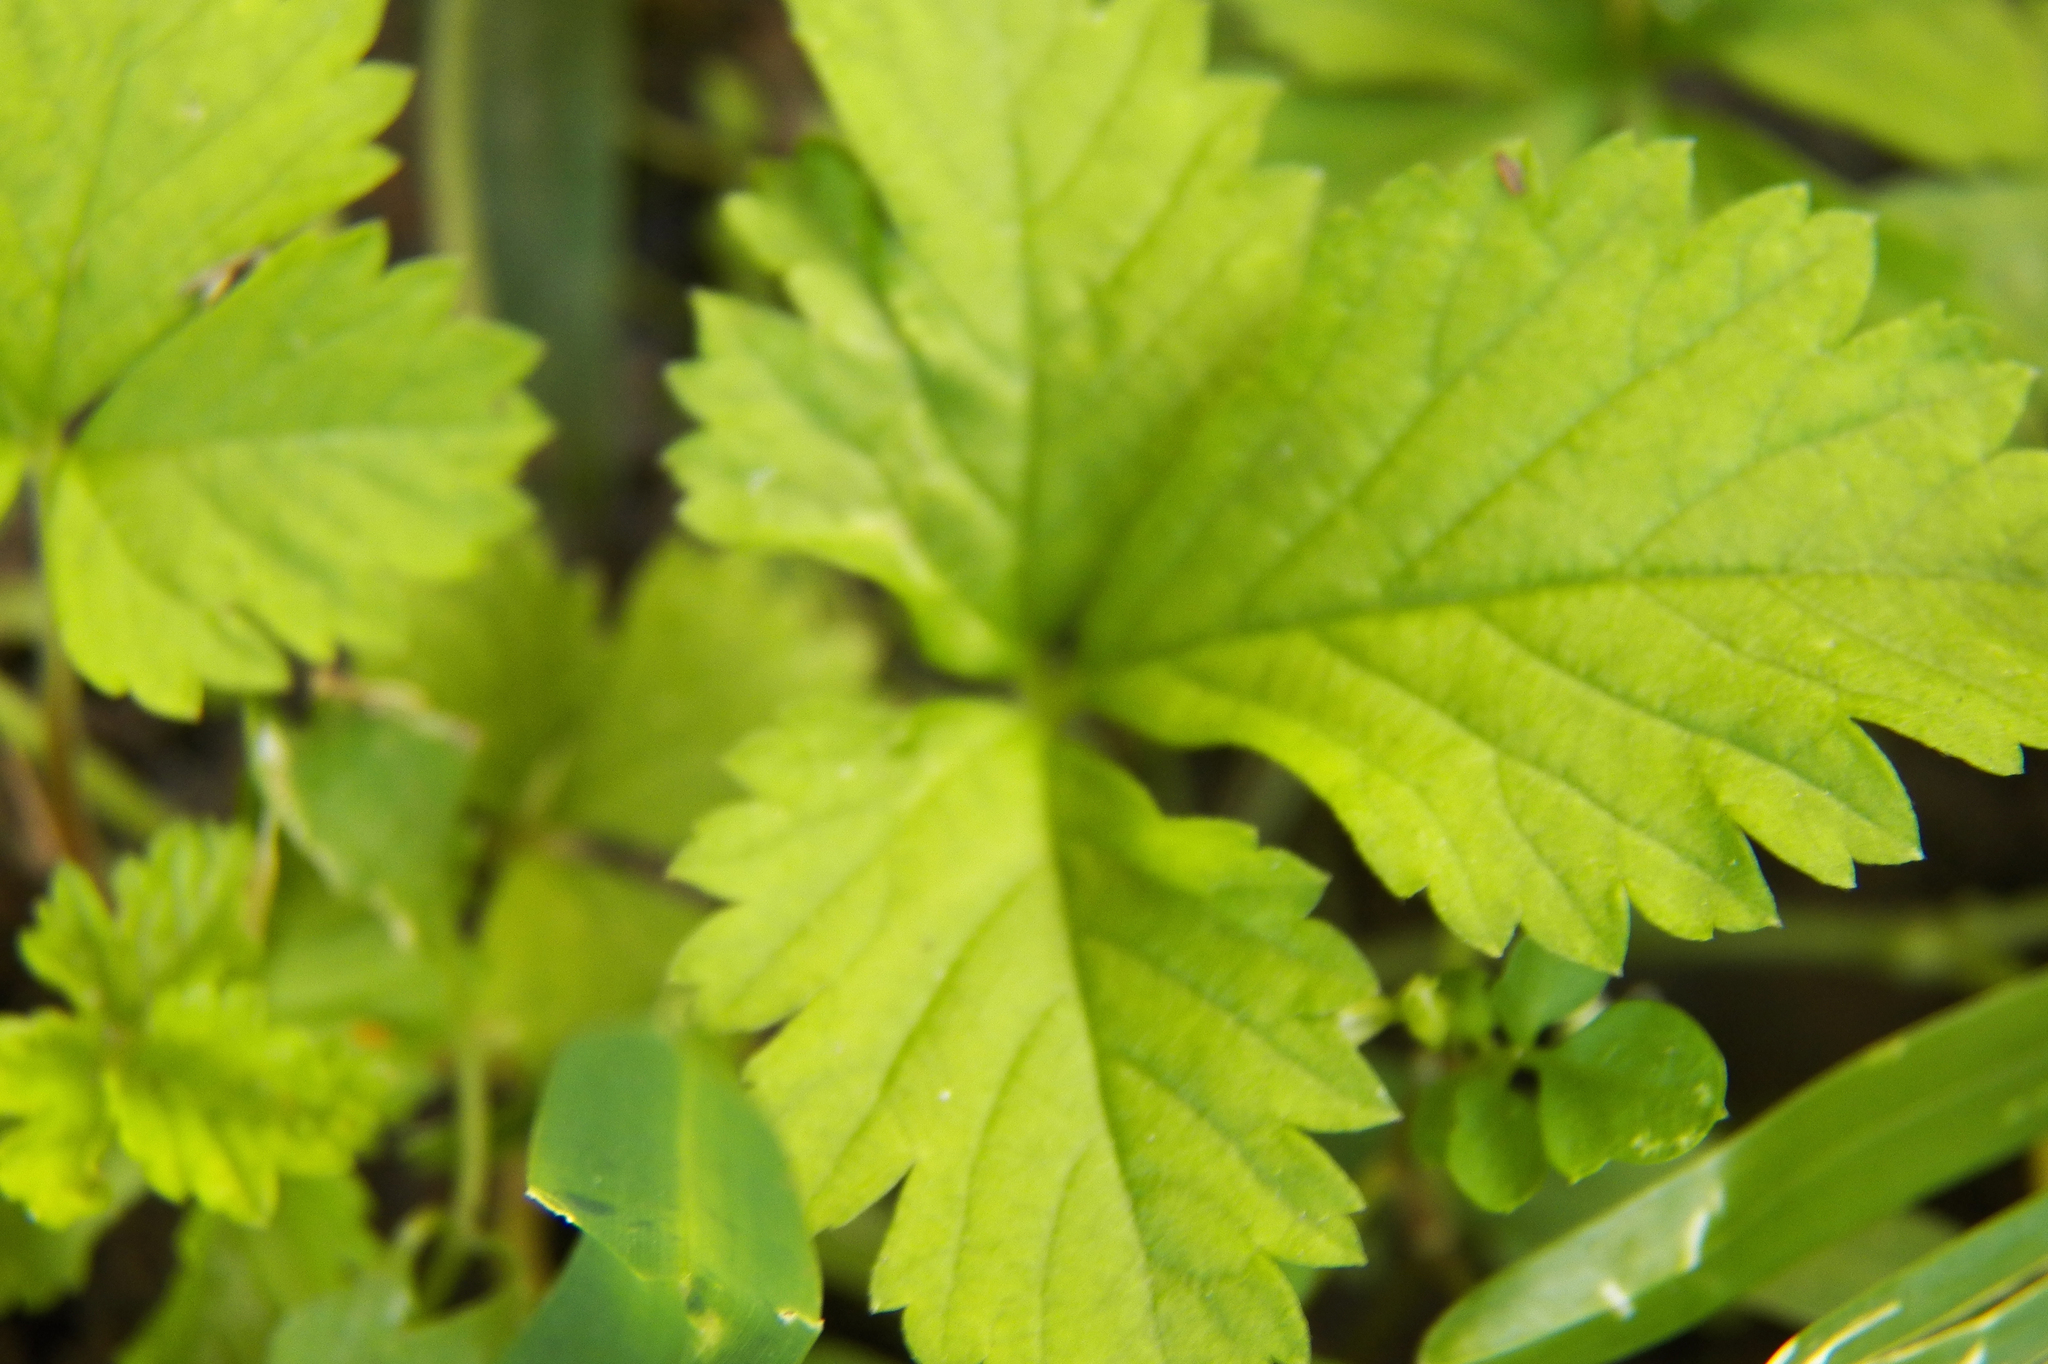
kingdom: Plantae
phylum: Tracheophyta
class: Magnoliopsida
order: Rosales
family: Rosaceae
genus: Potentilla
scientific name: Potentilla indica
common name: Yellow-flowered strawberry
